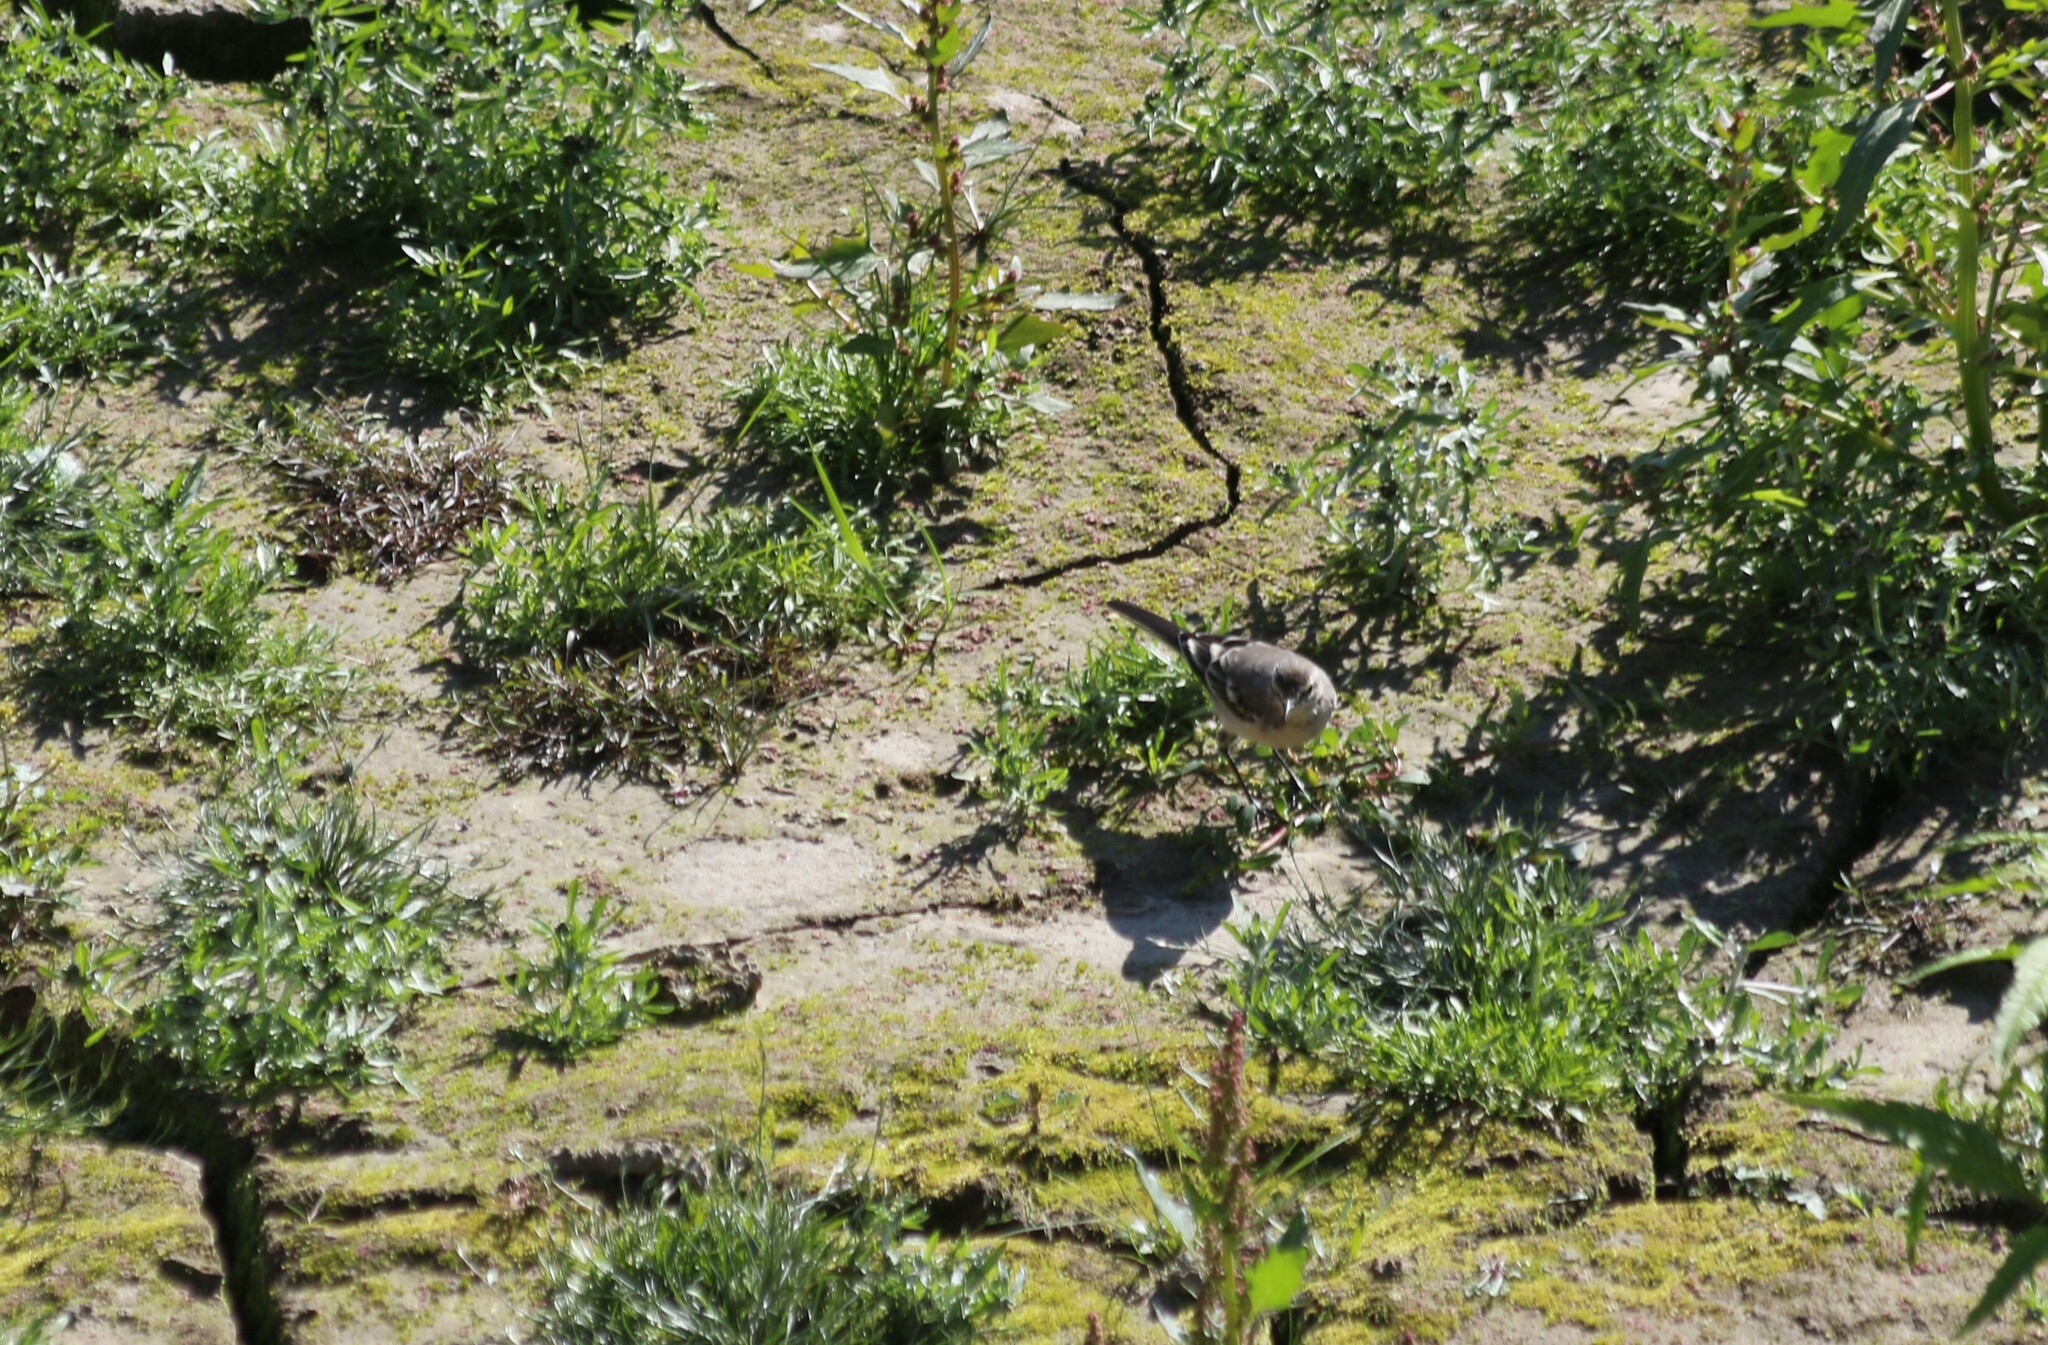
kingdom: Animalia
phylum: Chordata
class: Aves
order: Passeriformes
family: Motacillidae
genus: Motacilla
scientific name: Motacilla flava
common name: Western yellow wagtail
